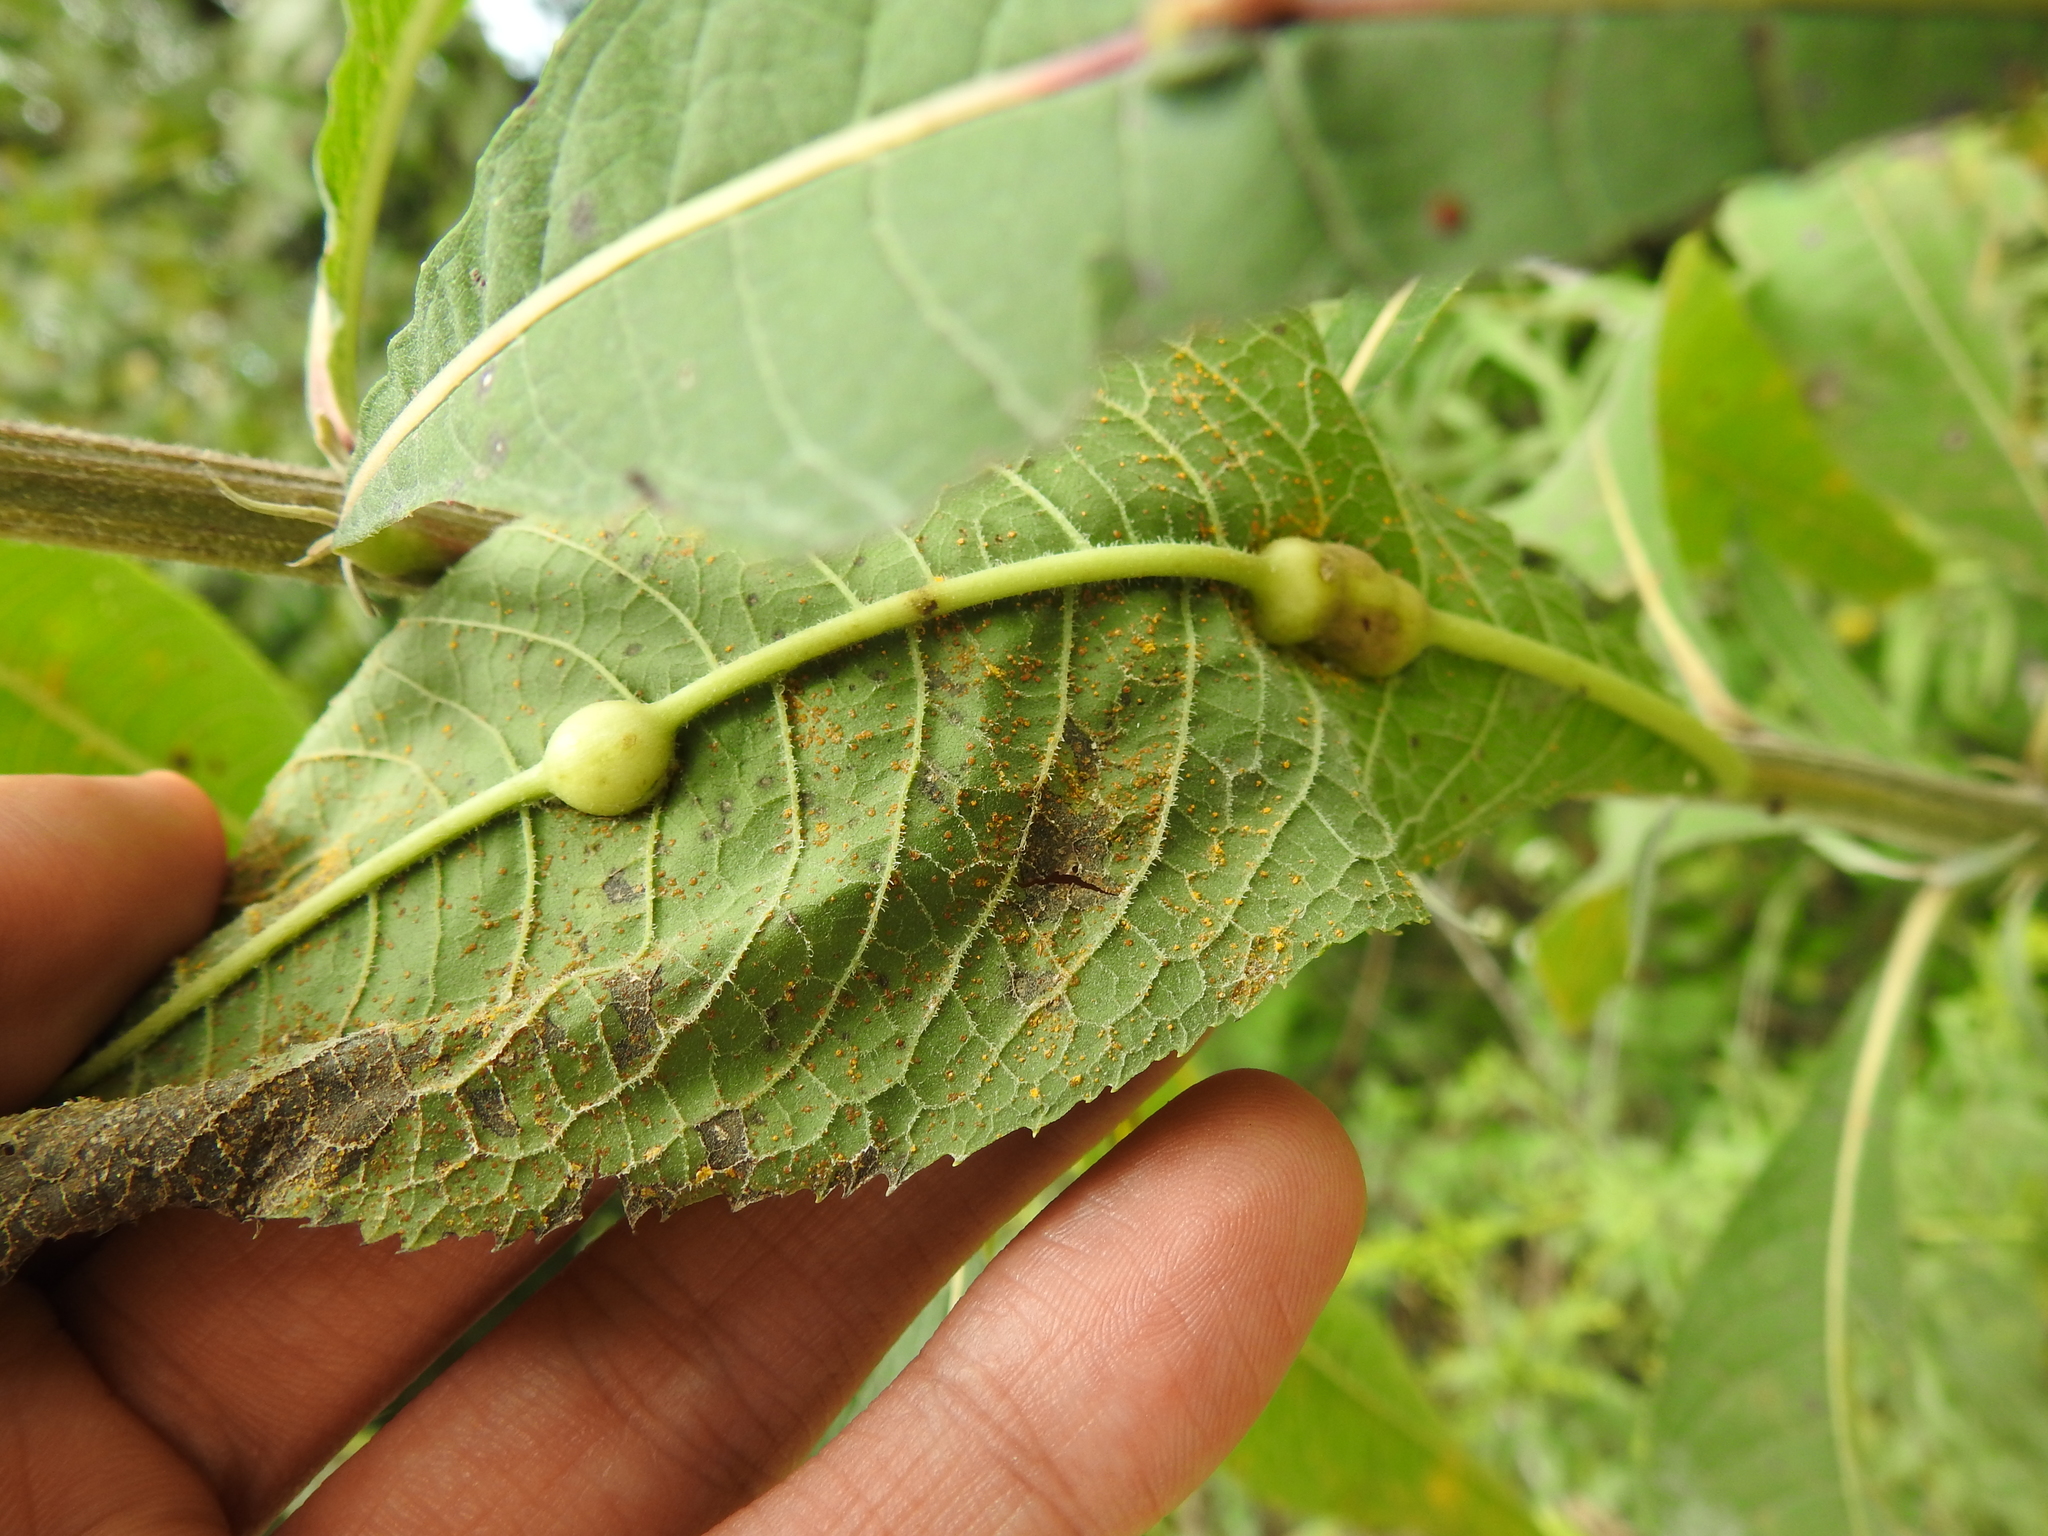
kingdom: Animalia
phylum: Arthropoda
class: Insecta
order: Diptera
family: Cecidomyiidae
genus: Neolasioptera
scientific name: Neolasioptera vernoniae
